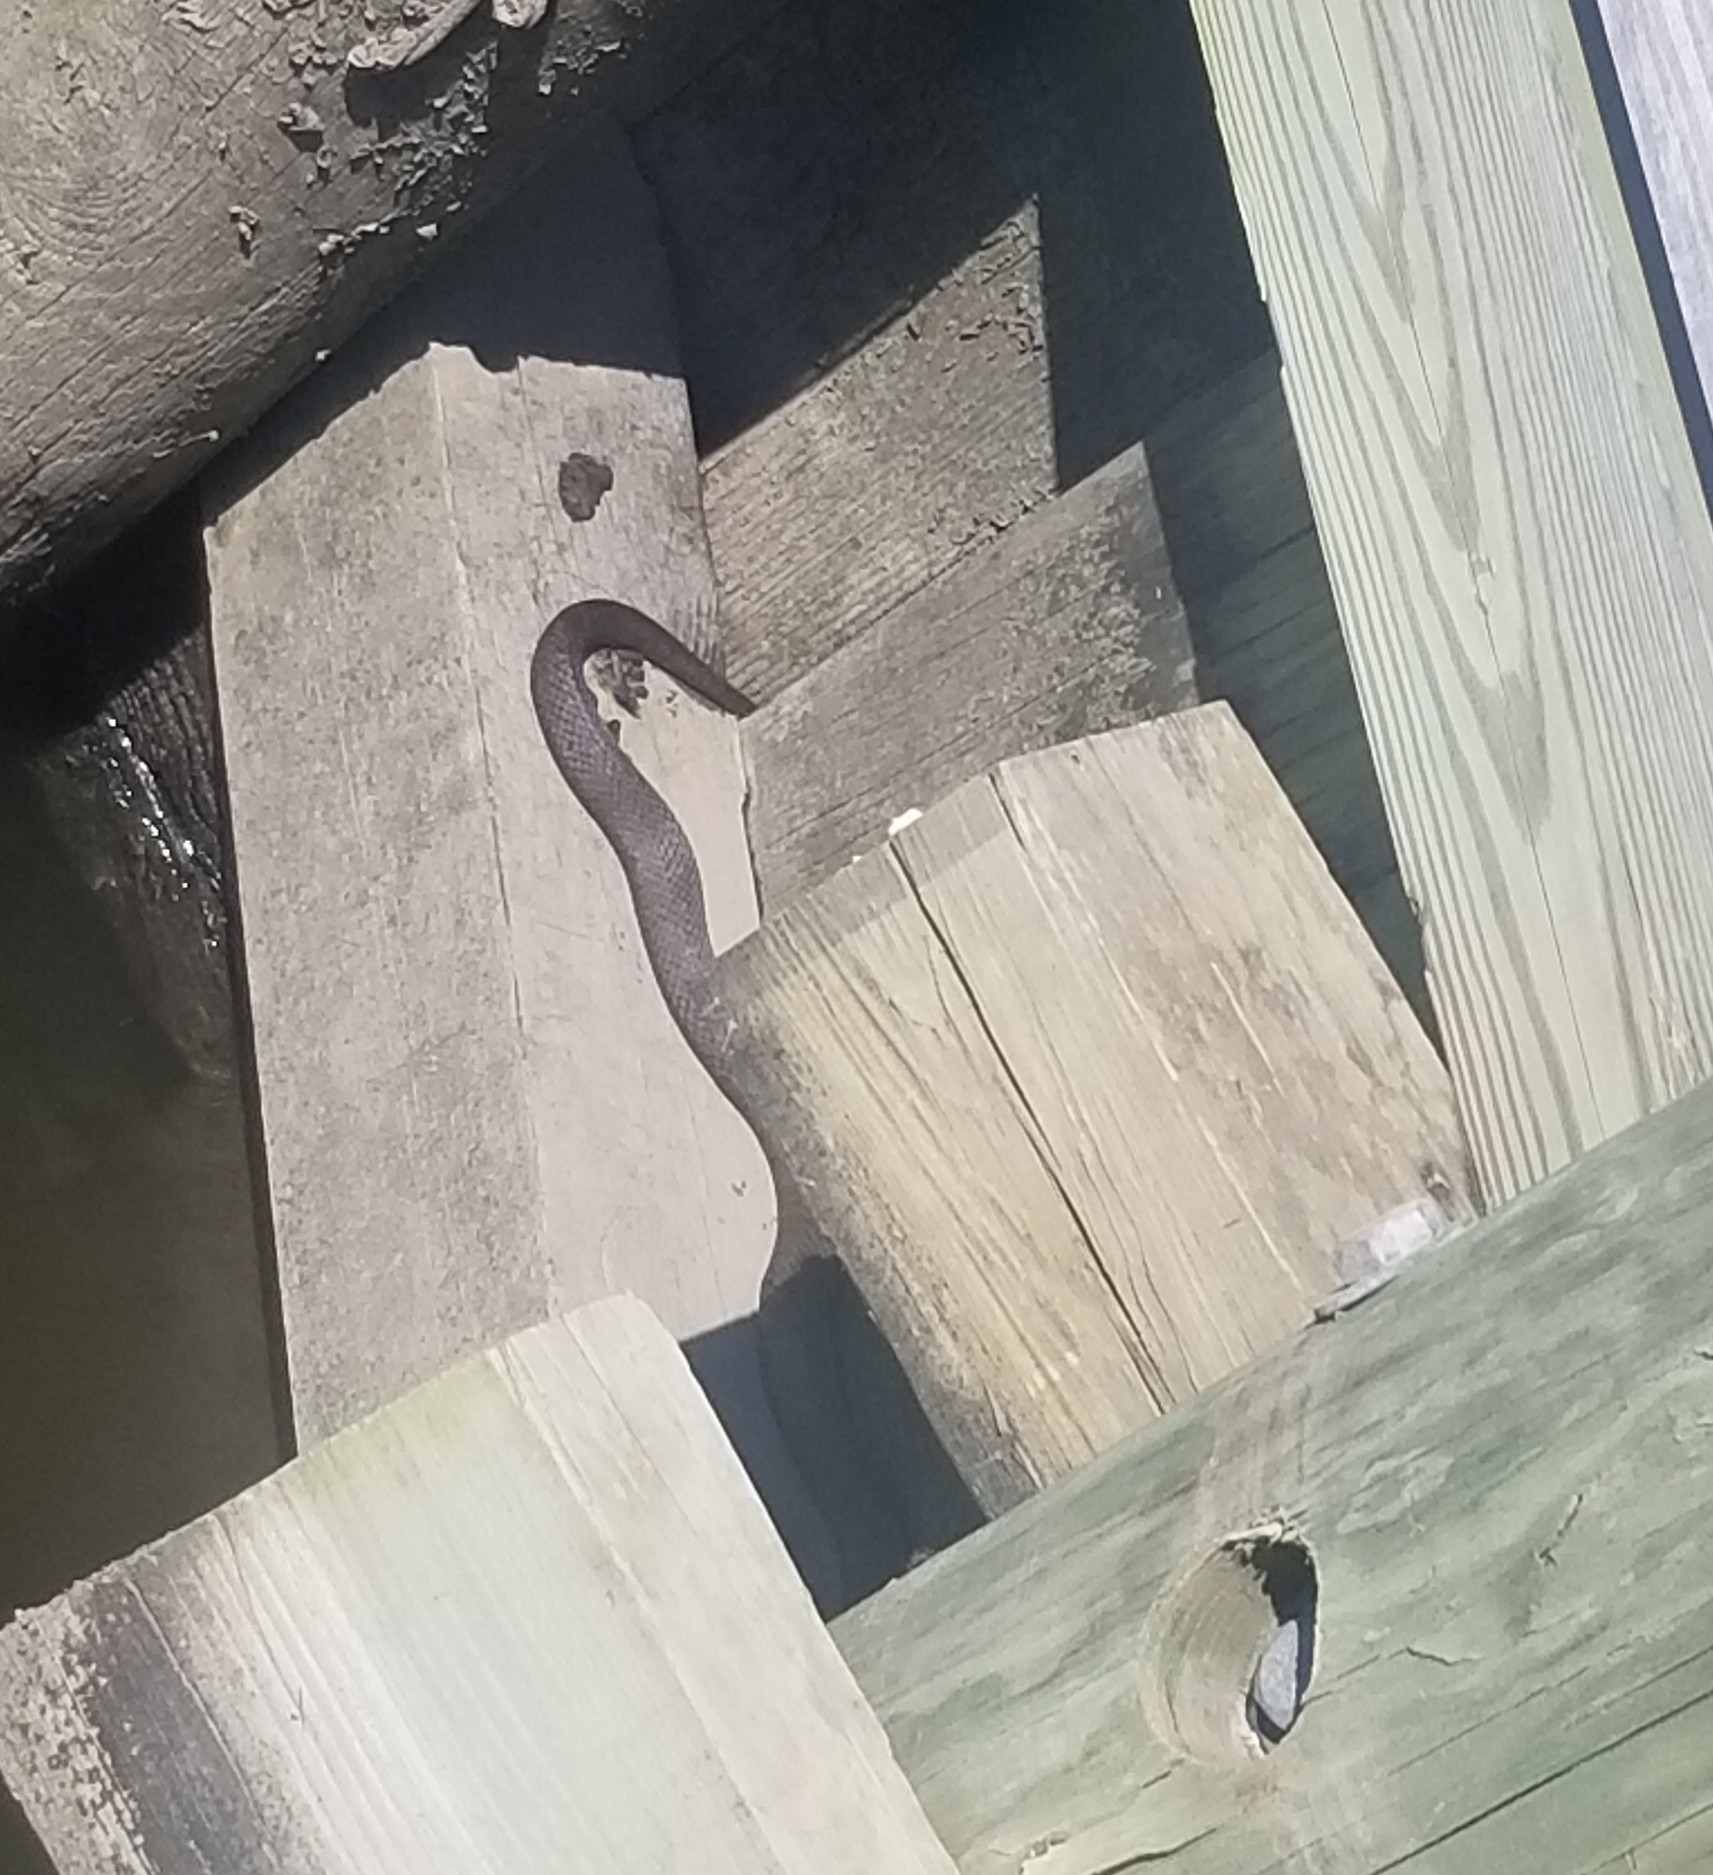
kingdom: Animalia
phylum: Chordata
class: Squamata
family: Colubridae
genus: Nerodia
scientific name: Nerodia sipedon
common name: Northern water snake
